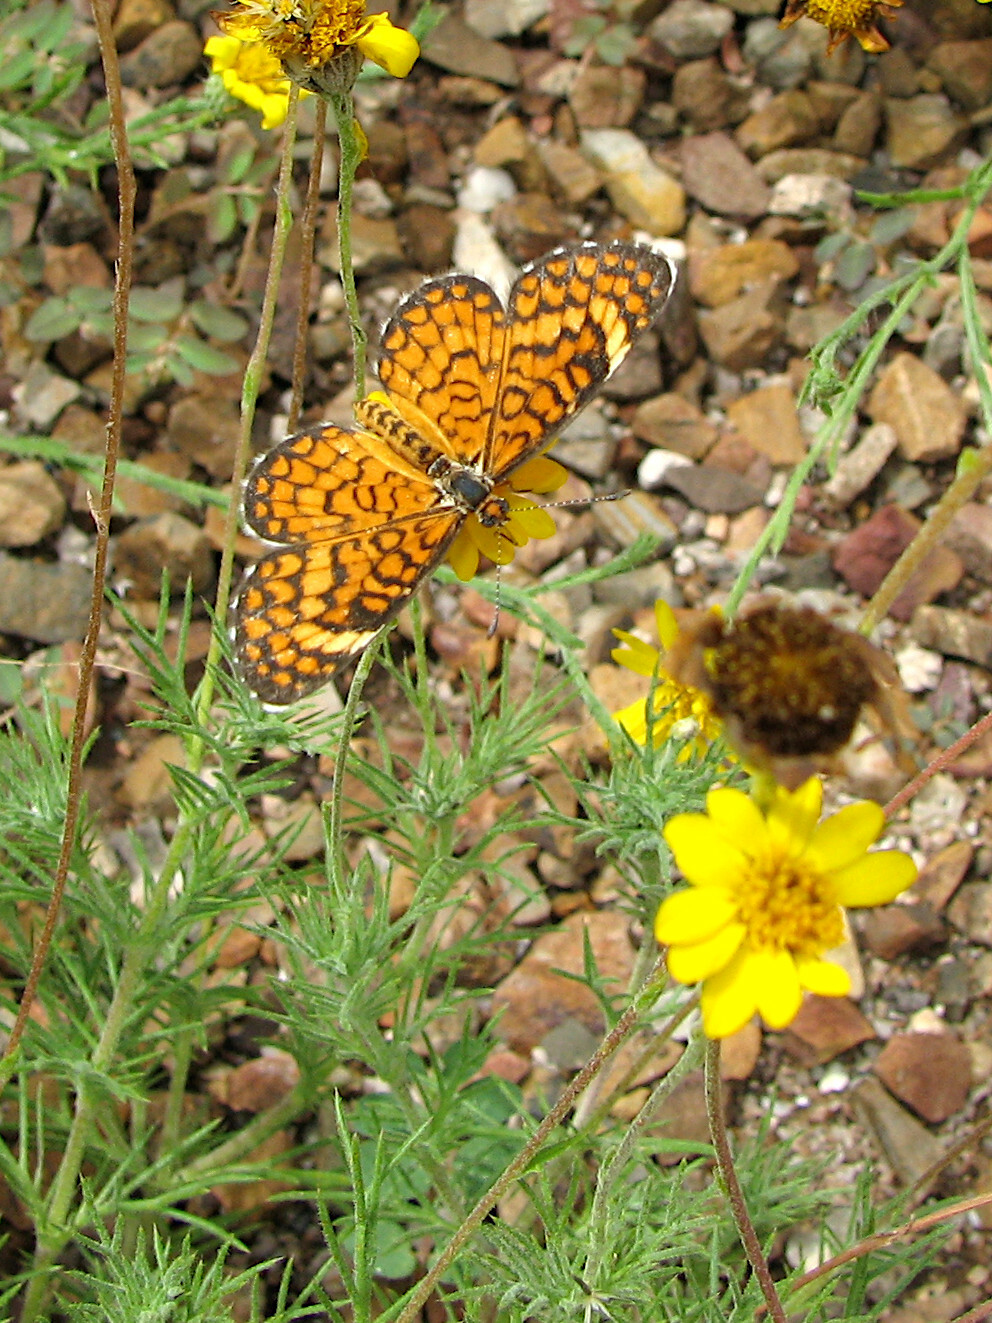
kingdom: Animalia
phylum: Arthropoda
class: Insecta
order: Lepidoptera
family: Nymphalidae
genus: Dymasia
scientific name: Dymasia dymas
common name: Tiny checkerspot
